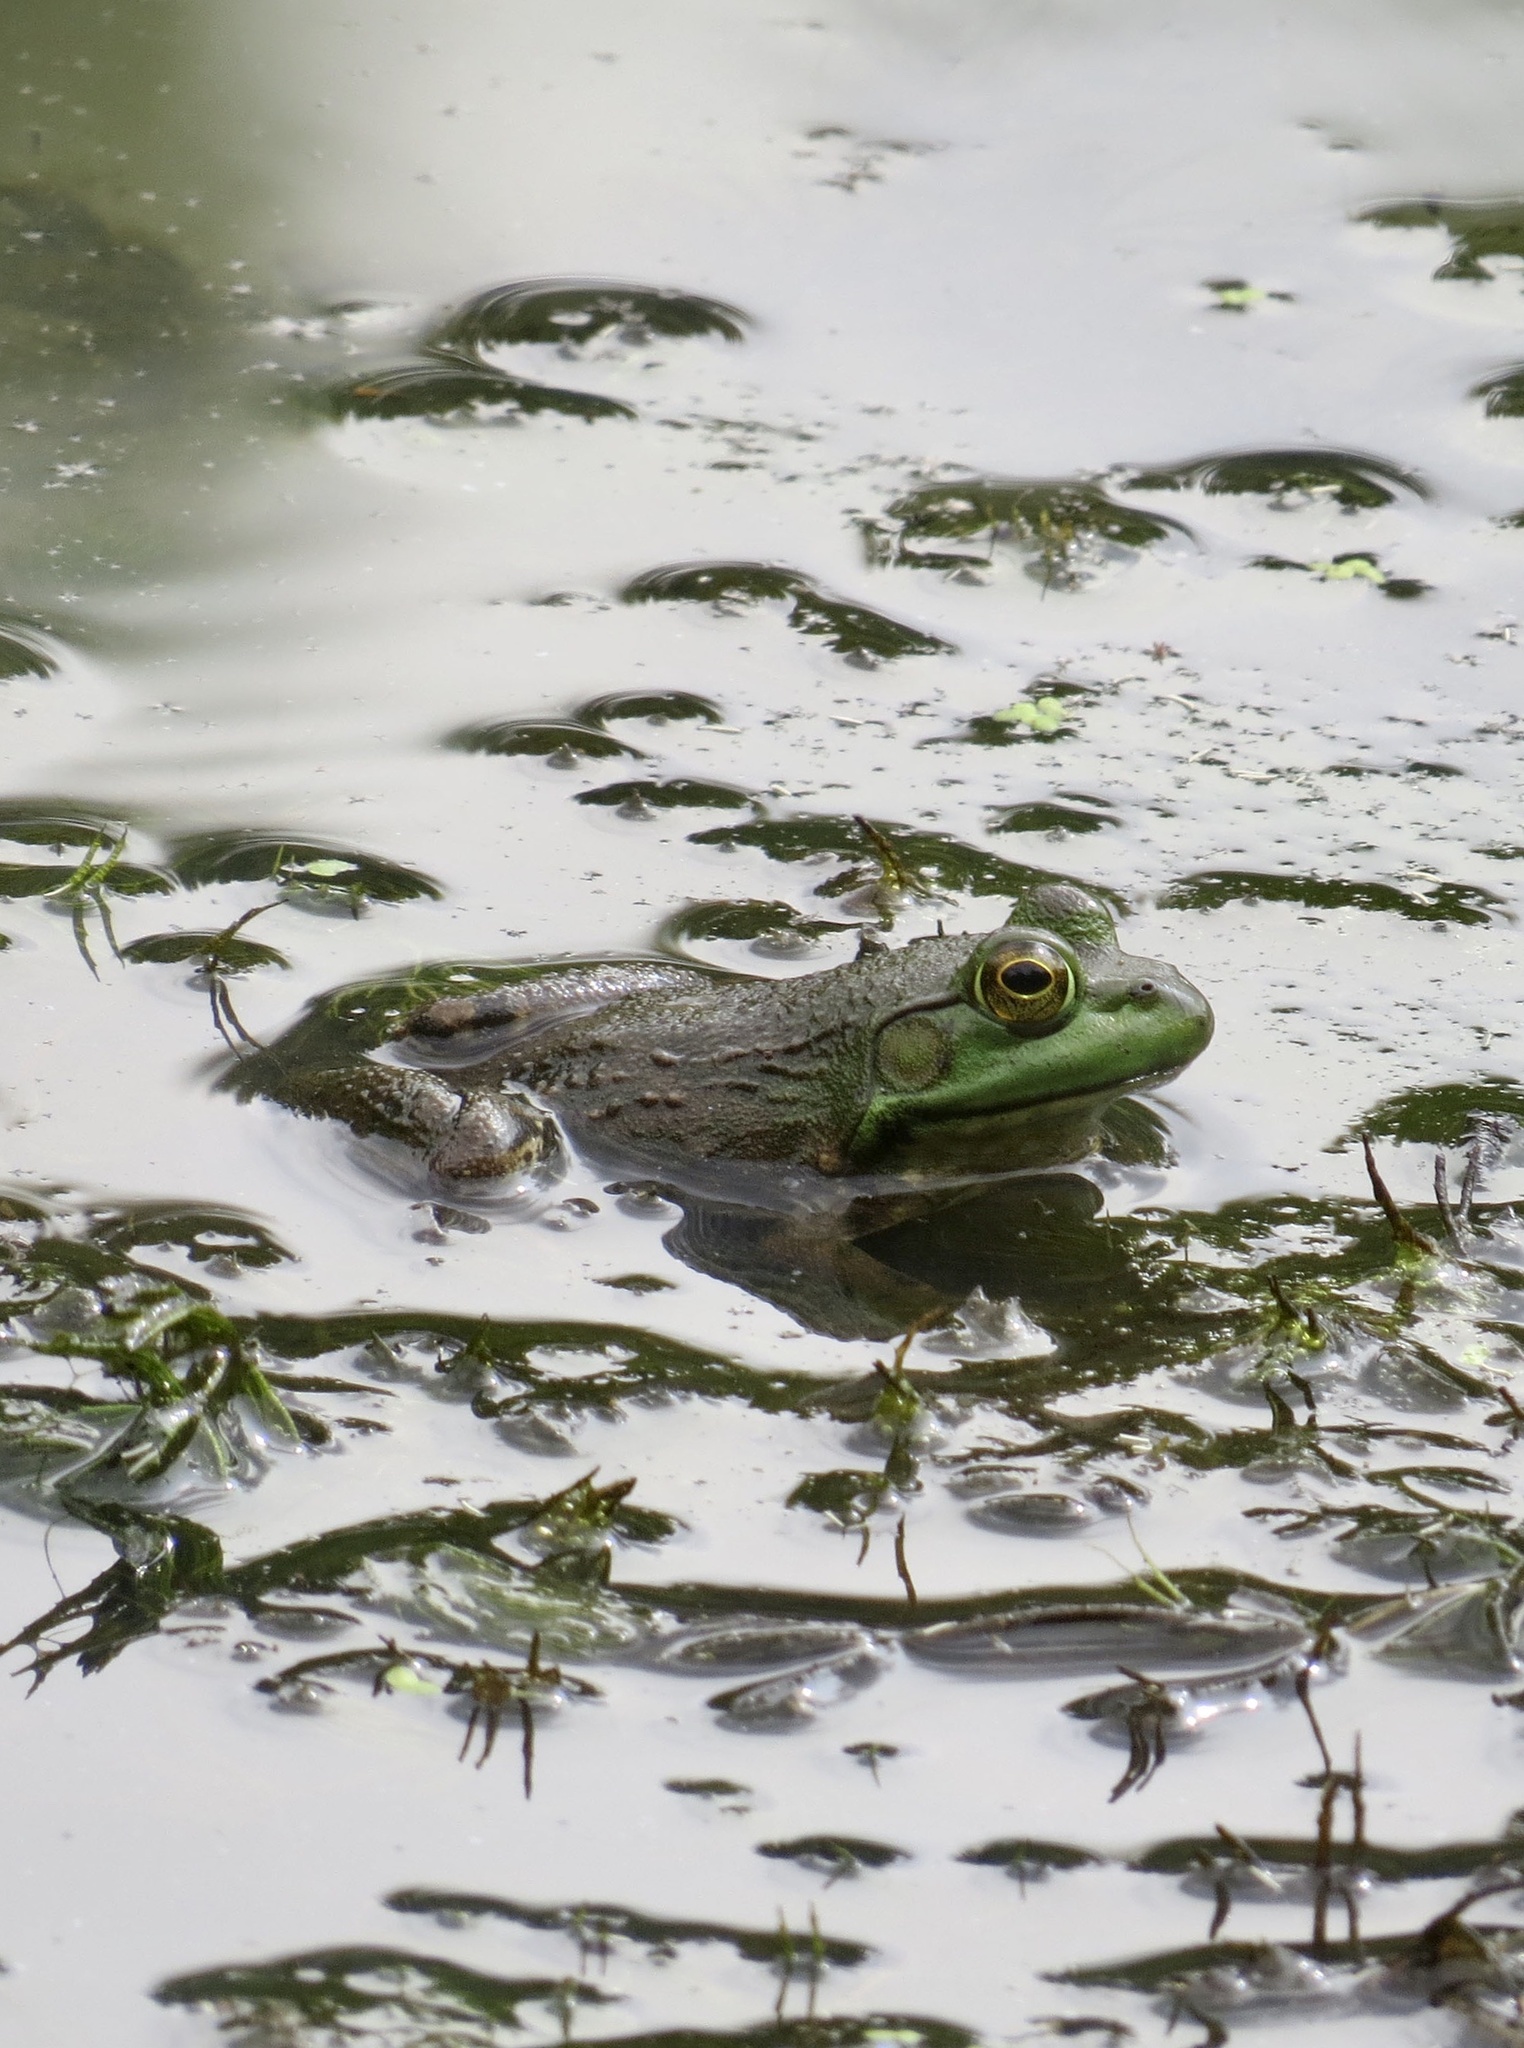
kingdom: Animalia
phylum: Chordata
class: Amphibia
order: Anura
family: Ranidae
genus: Lithobates
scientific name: Lithobates catesbeianus
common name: American bullfrog
